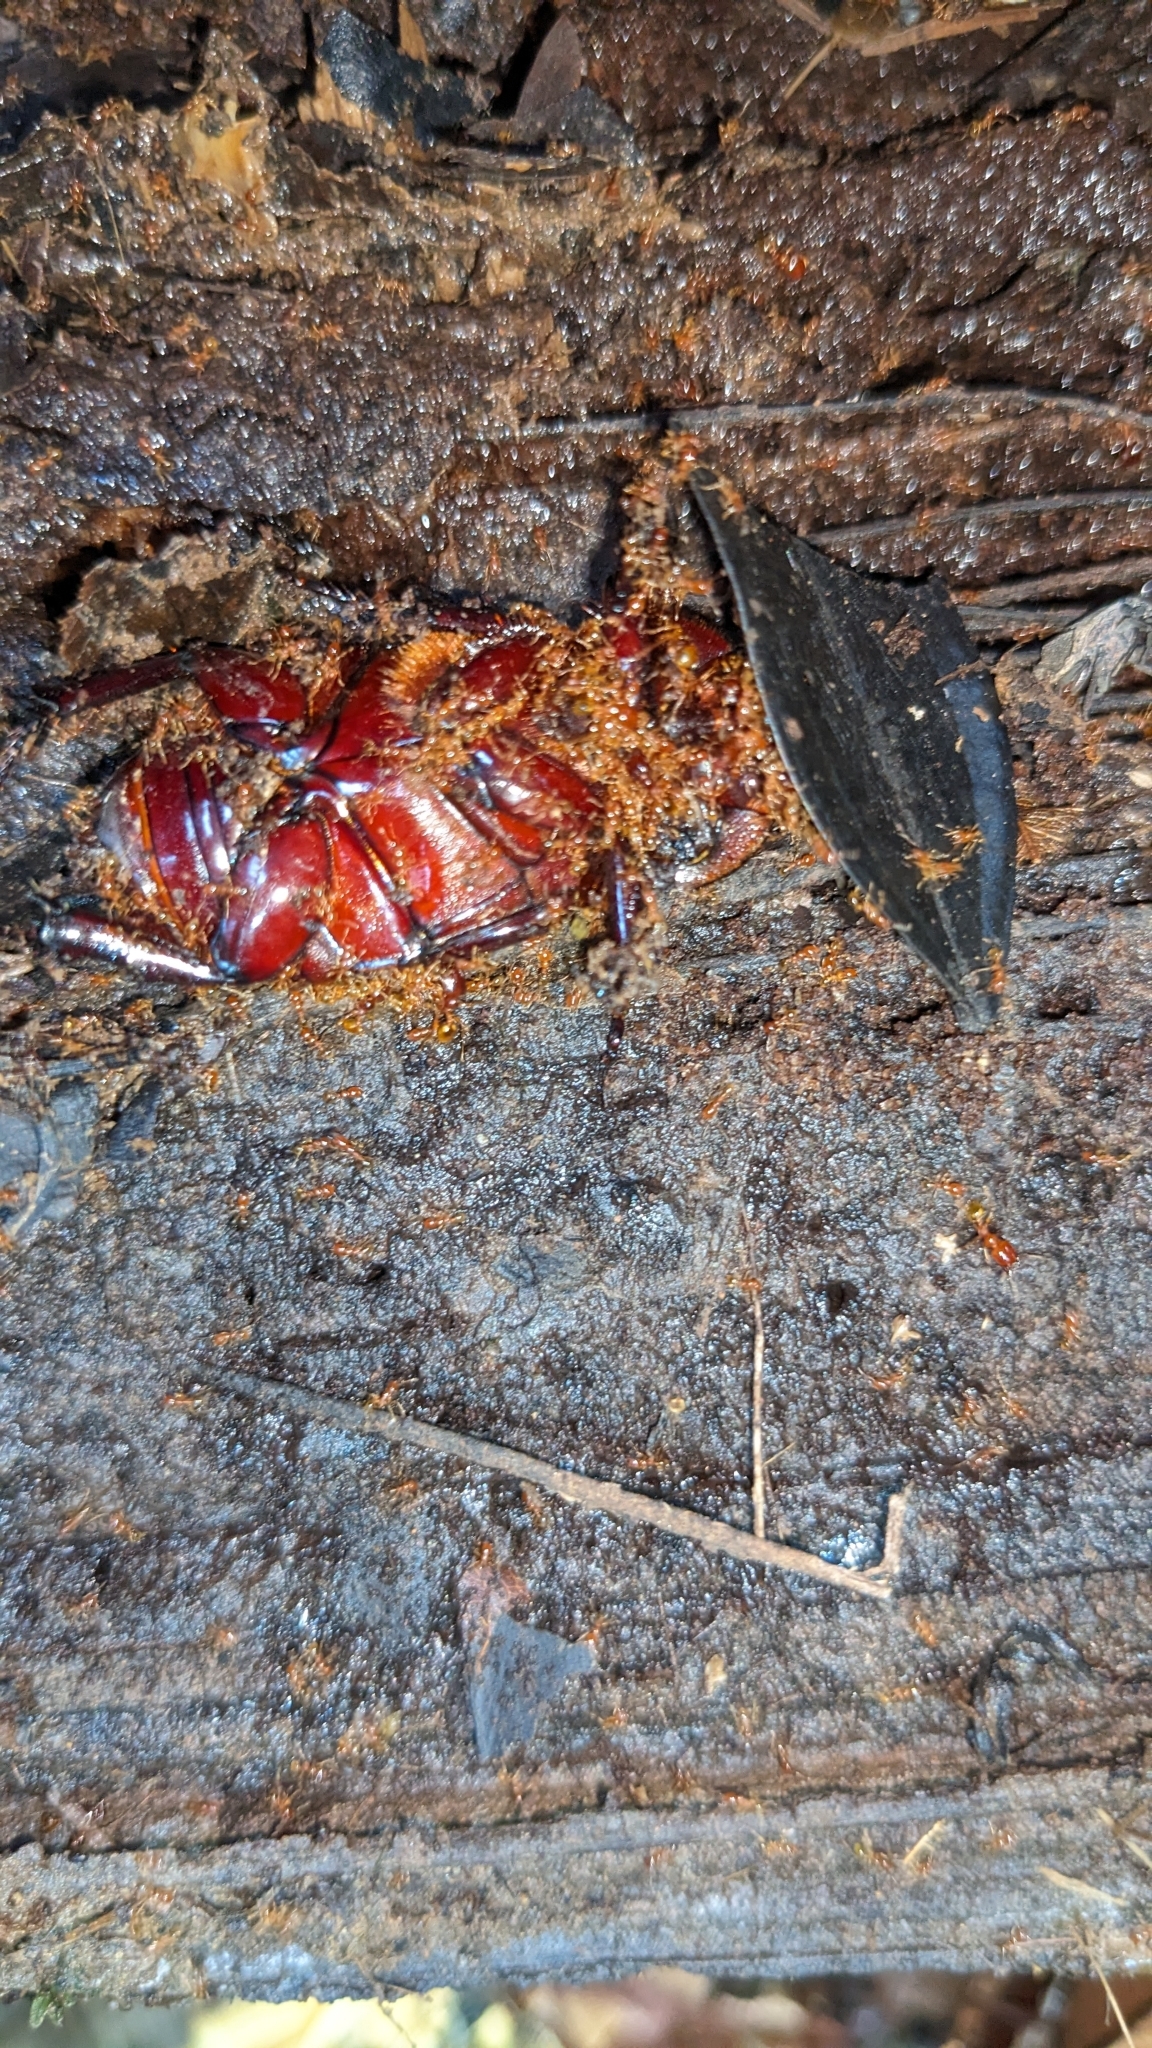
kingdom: Animalia
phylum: Arthropoda
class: Insecta
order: Hymenoptera
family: Formicidae
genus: Carebara
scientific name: Carebara affinis
